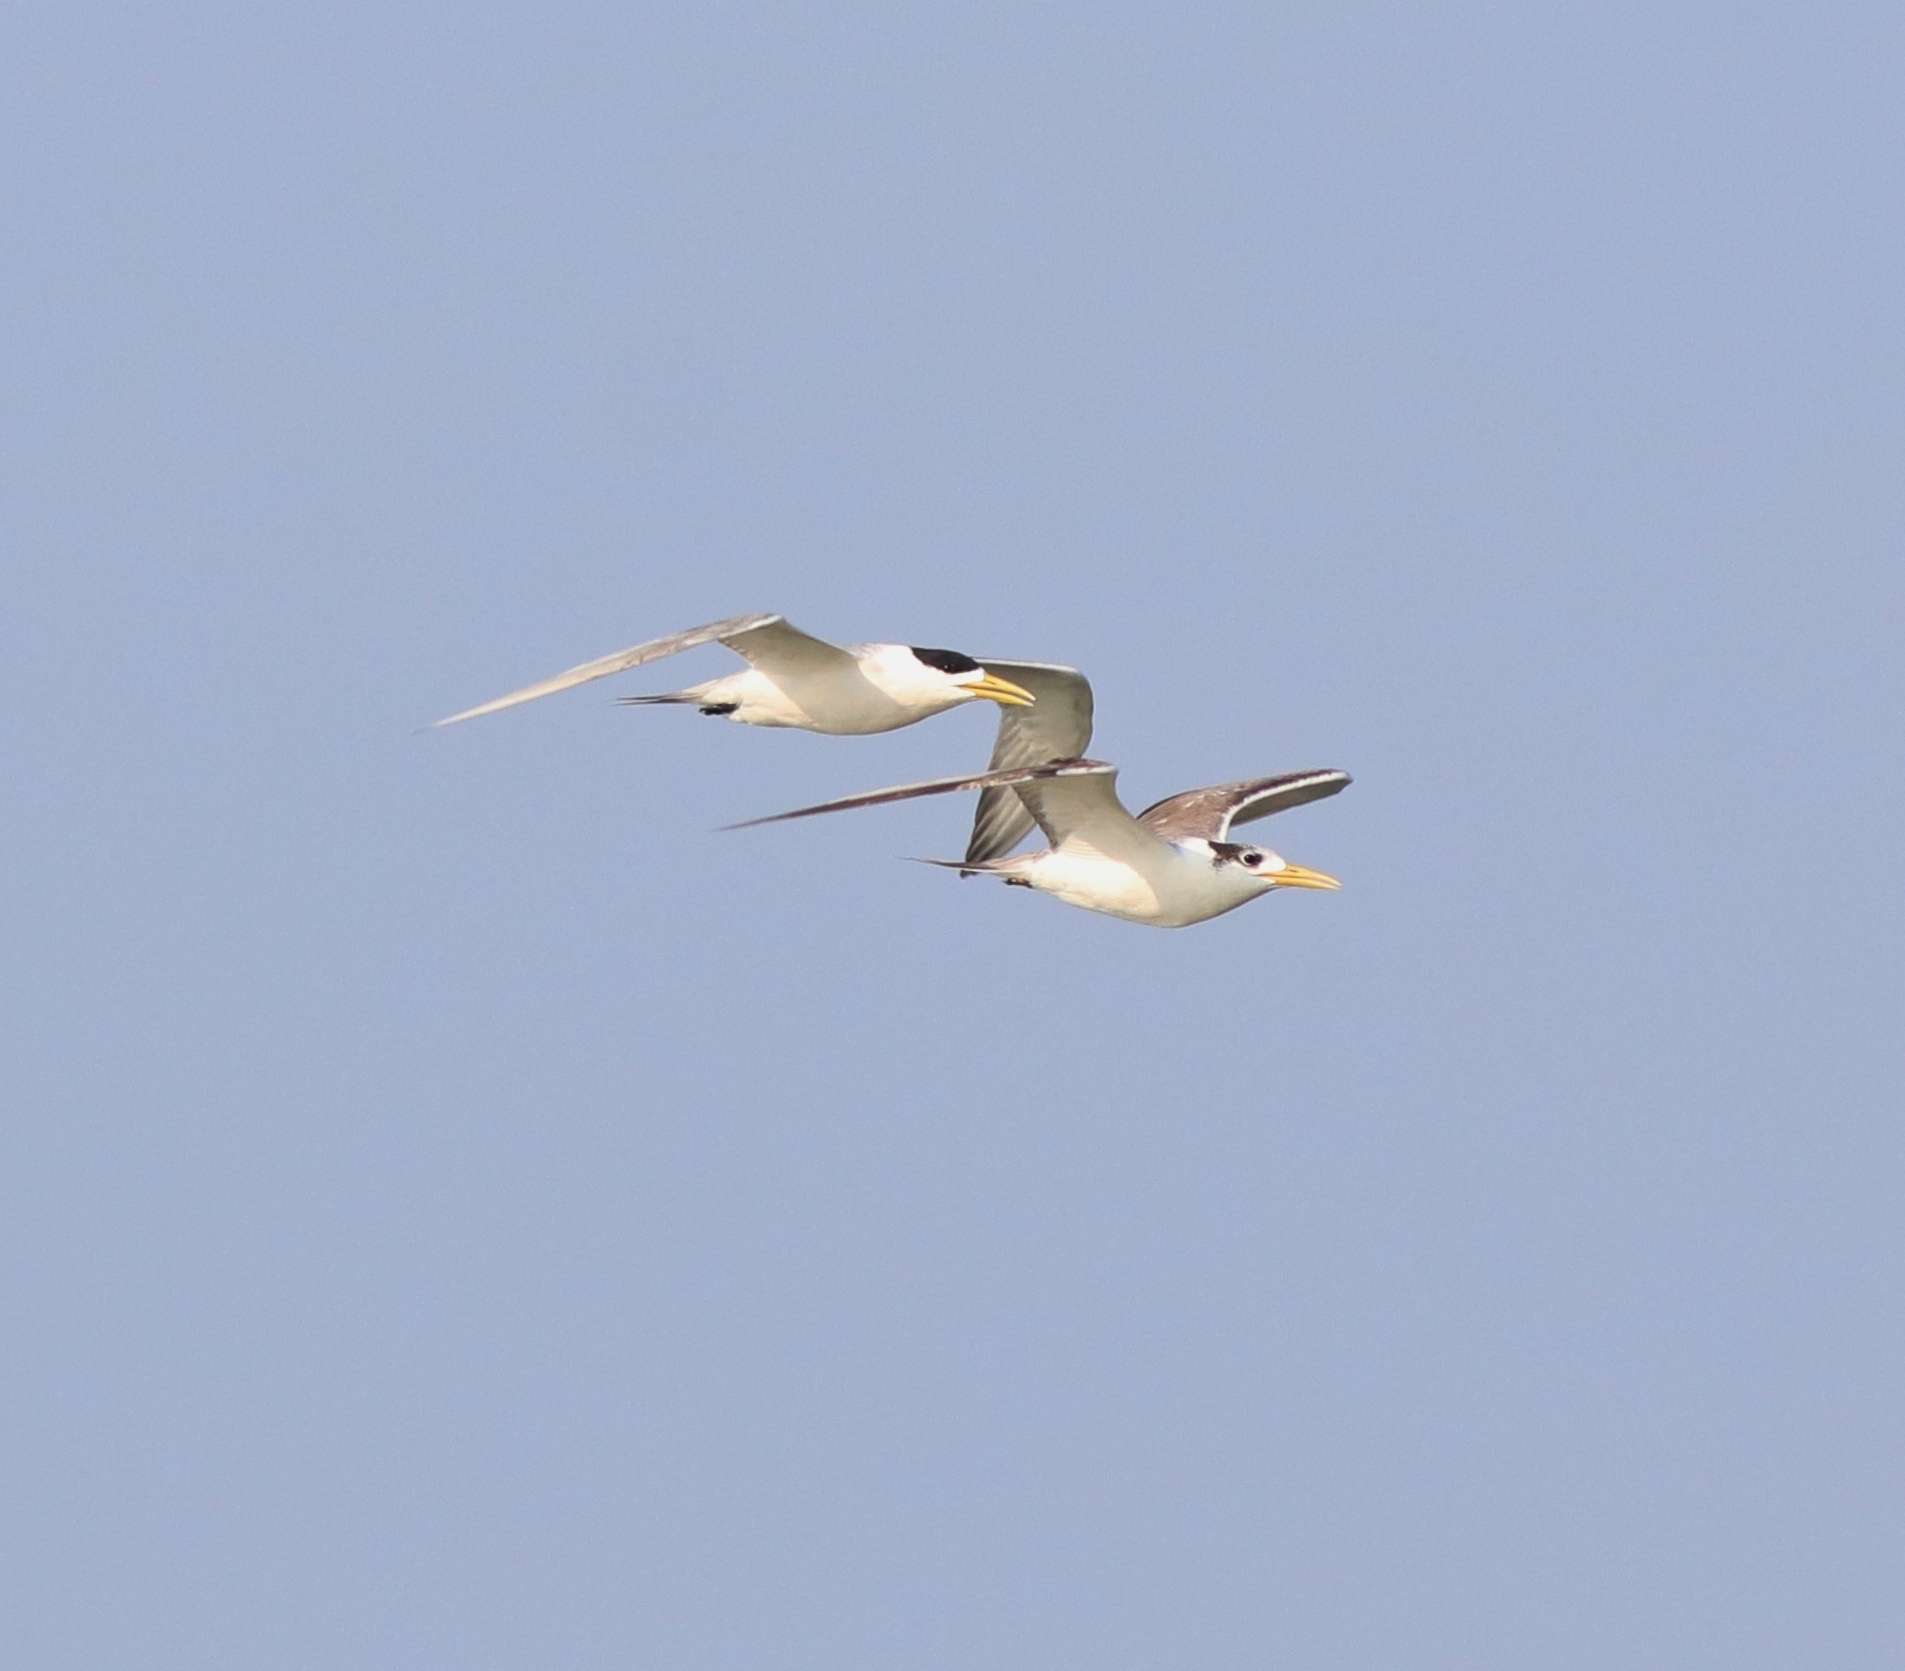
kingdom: Animalia
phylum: Chordata
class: Aves
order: Charadriiformes
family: Laridae
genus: Thalasseus
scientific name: Thalasseus bergii
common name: Greater crested tern
